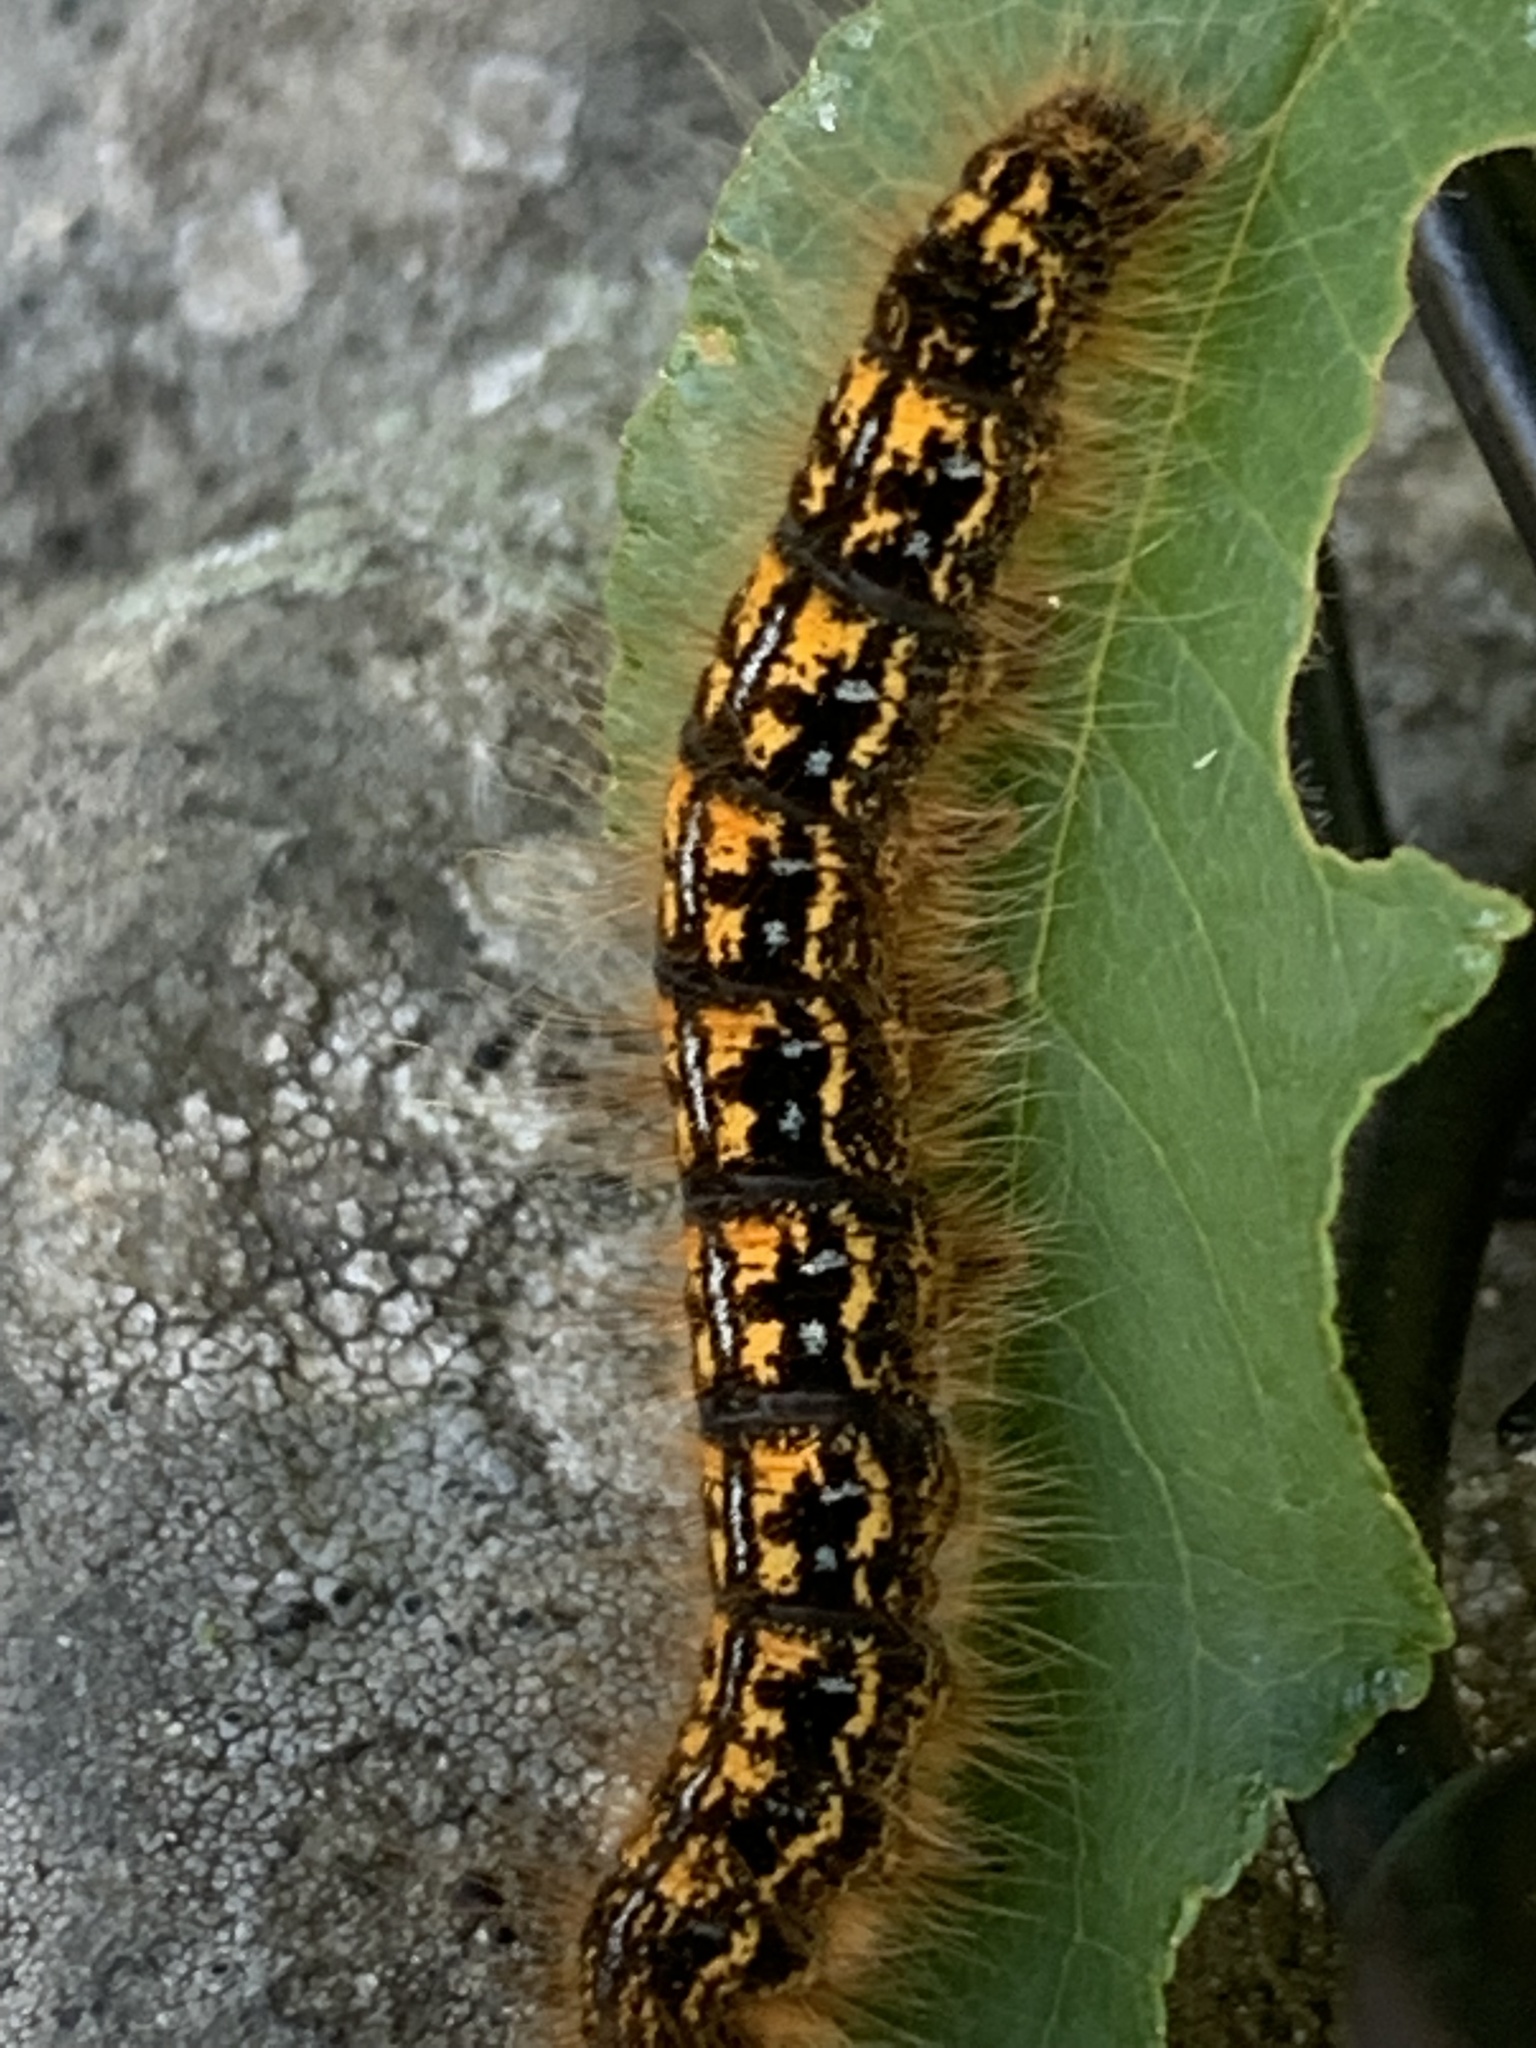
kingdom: Animalia
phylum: Arthropoda
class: Insecta
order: Lepidoptera
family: Lasiocampidae
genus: Malacosoma
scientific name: Malacosoma disstria
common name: Forest tent caterpillar
